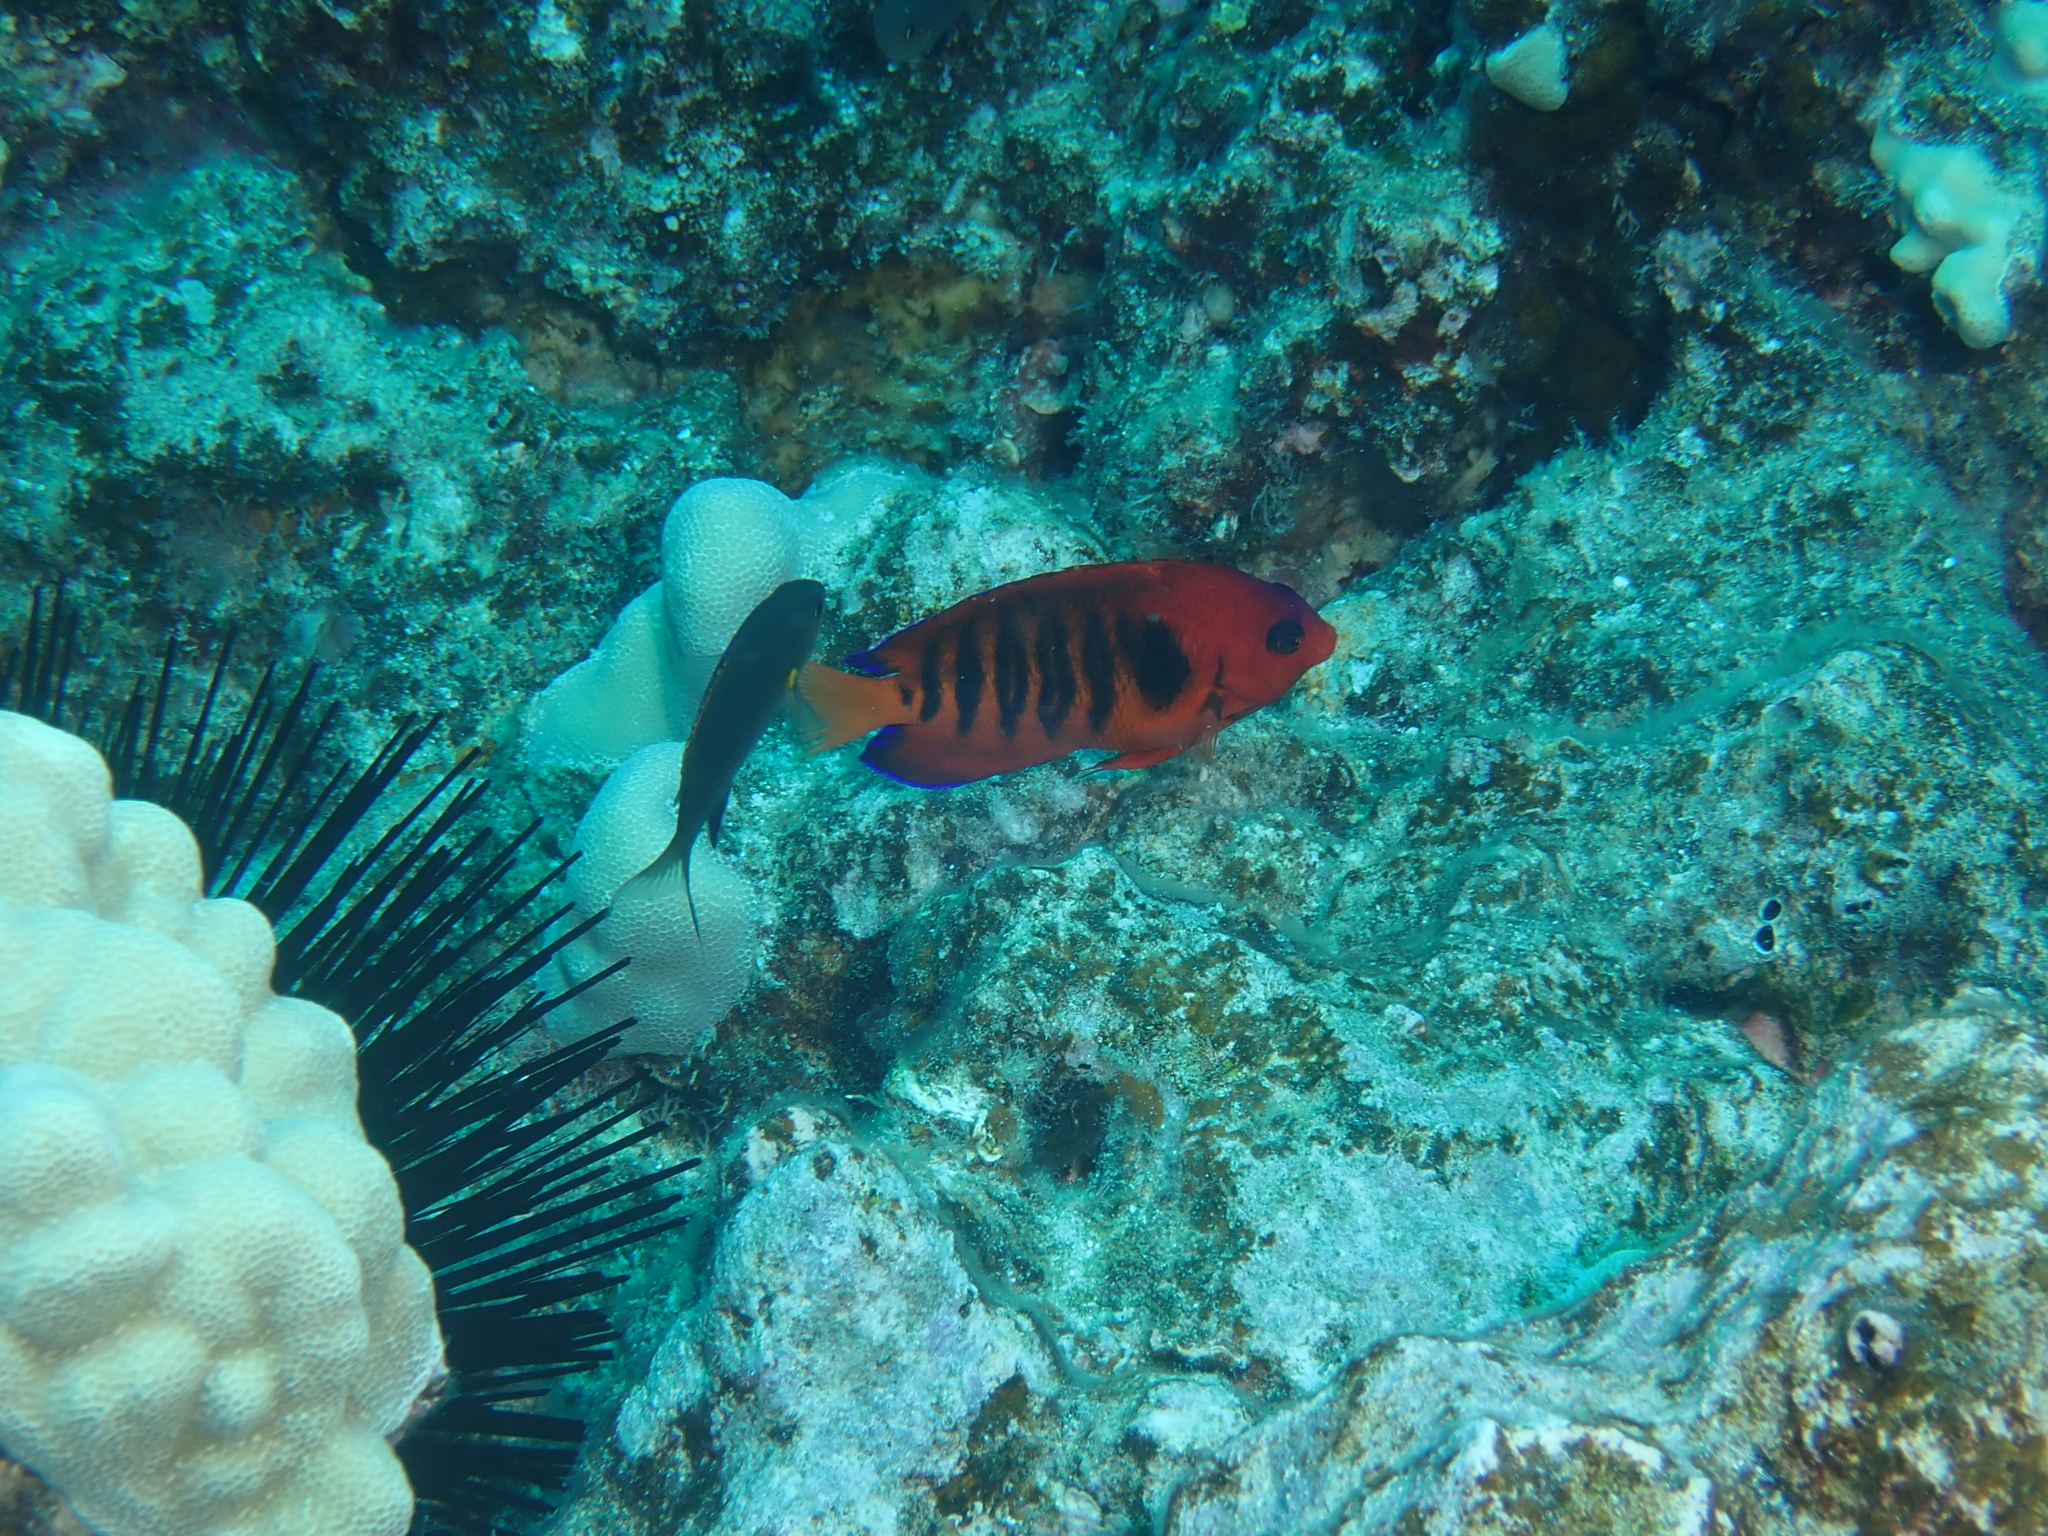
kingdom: Animalia
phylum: Chordata
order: Perciformes
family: Pomacanthidae
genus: Centropyge
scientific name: Centropyge loriculus
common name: Flame angelfish
